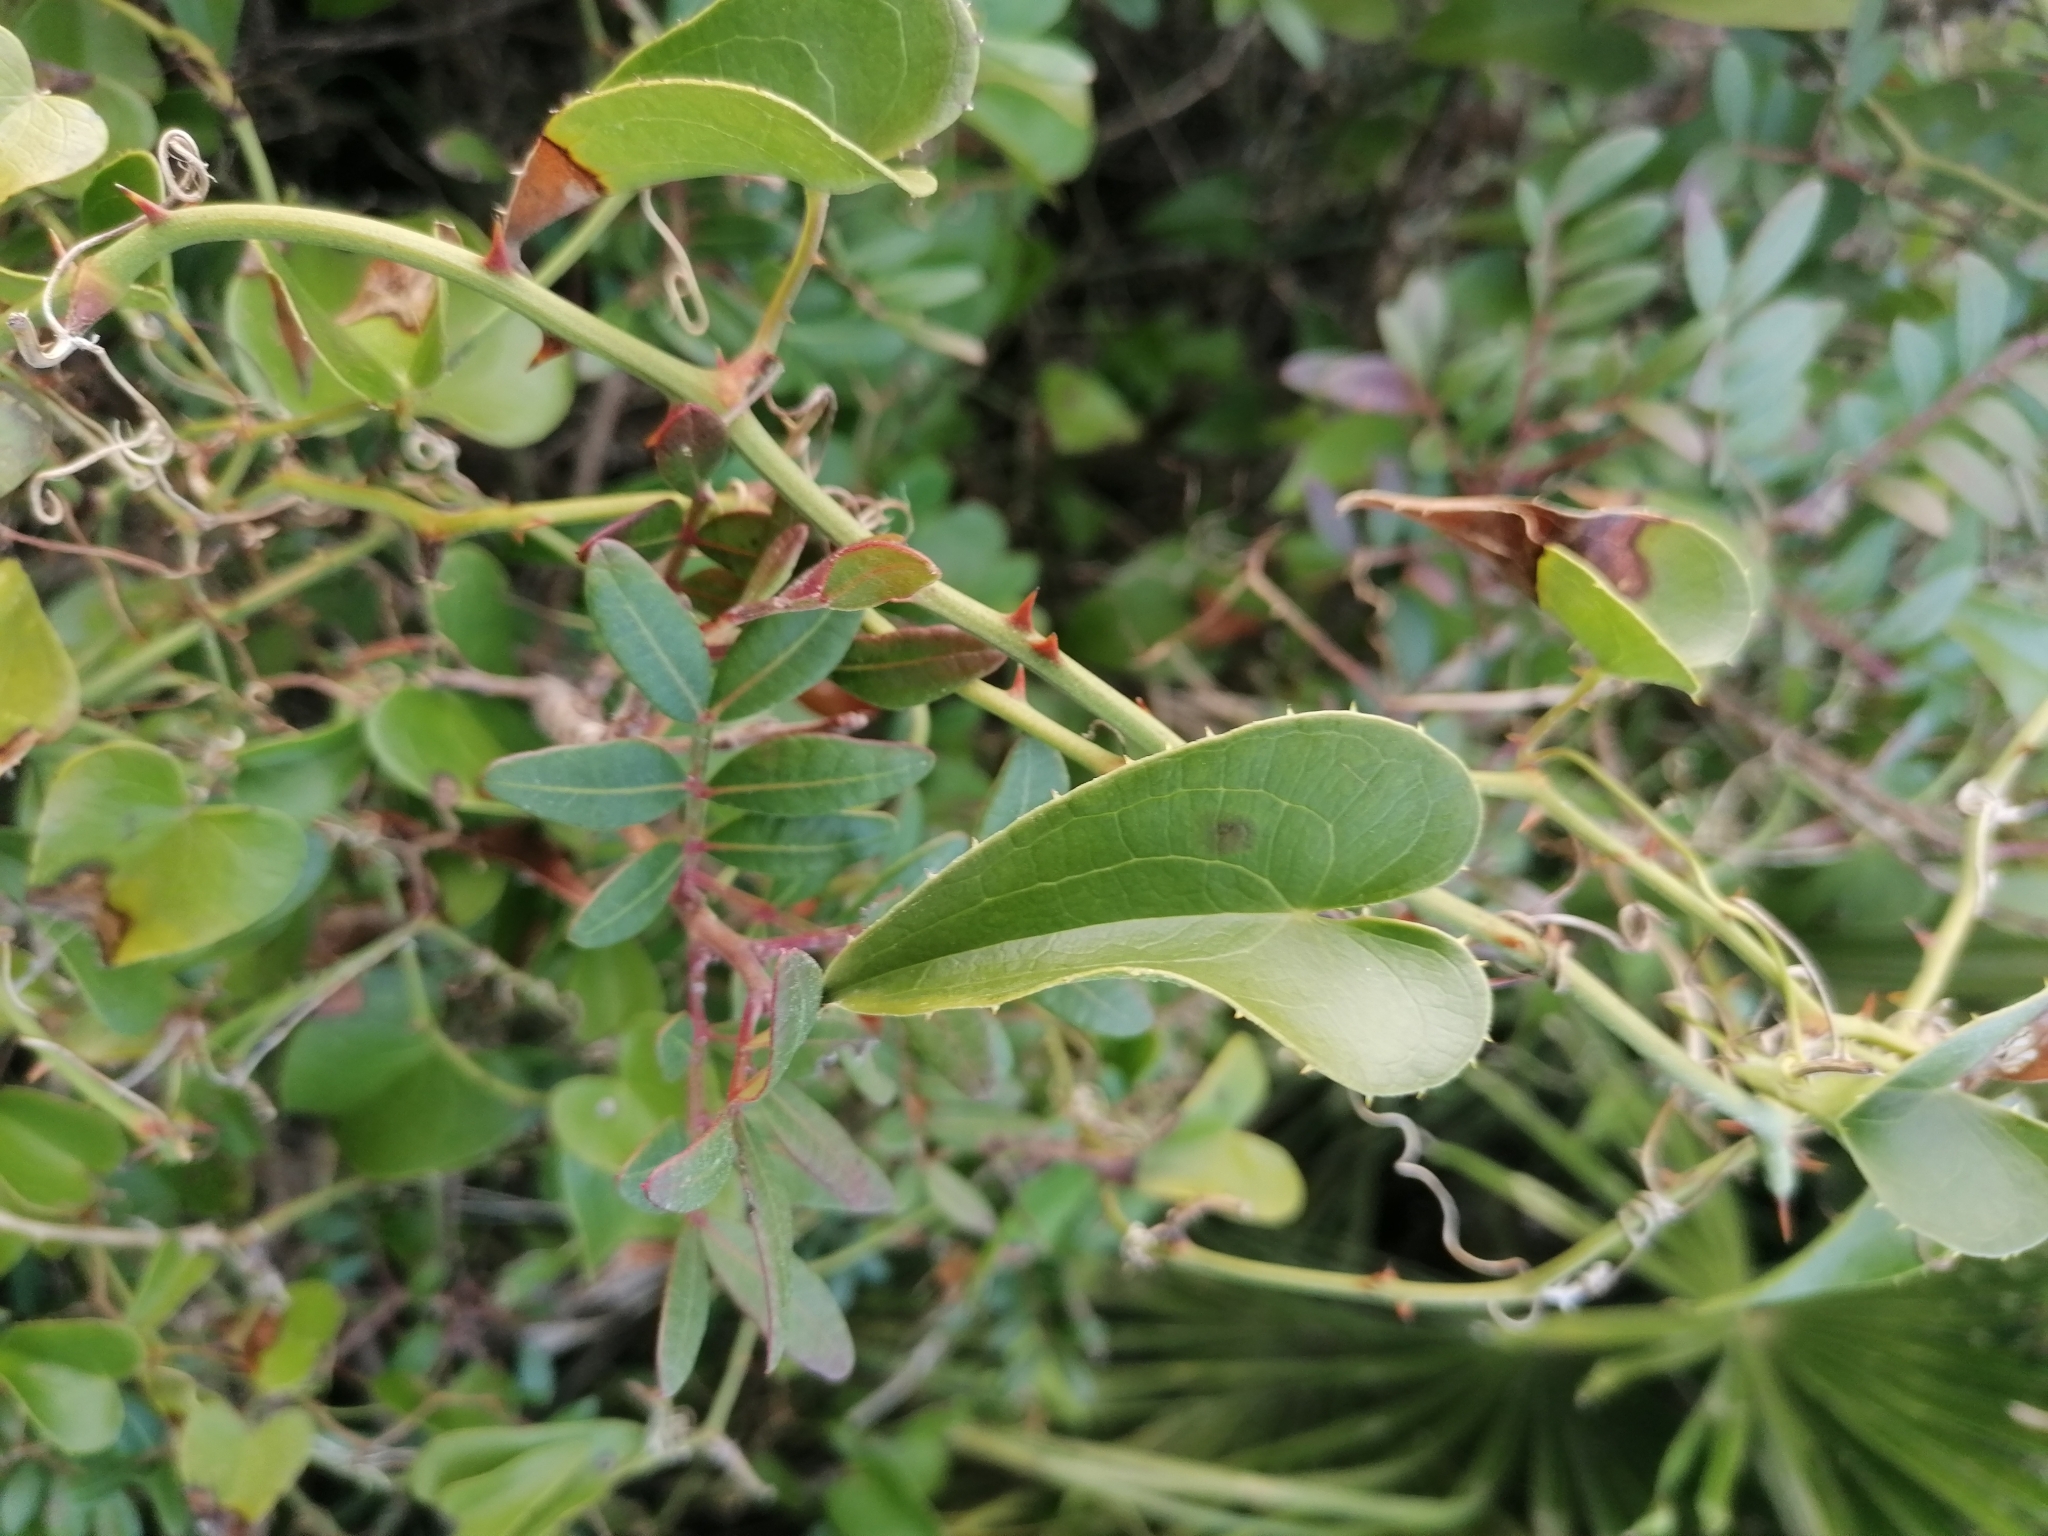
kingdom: Plantae
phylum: Tracheophyta
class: Liliopsida
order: Liliales
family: Smilacaceae
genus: Smilax
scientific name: Smilax aspera
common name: Common smilax
